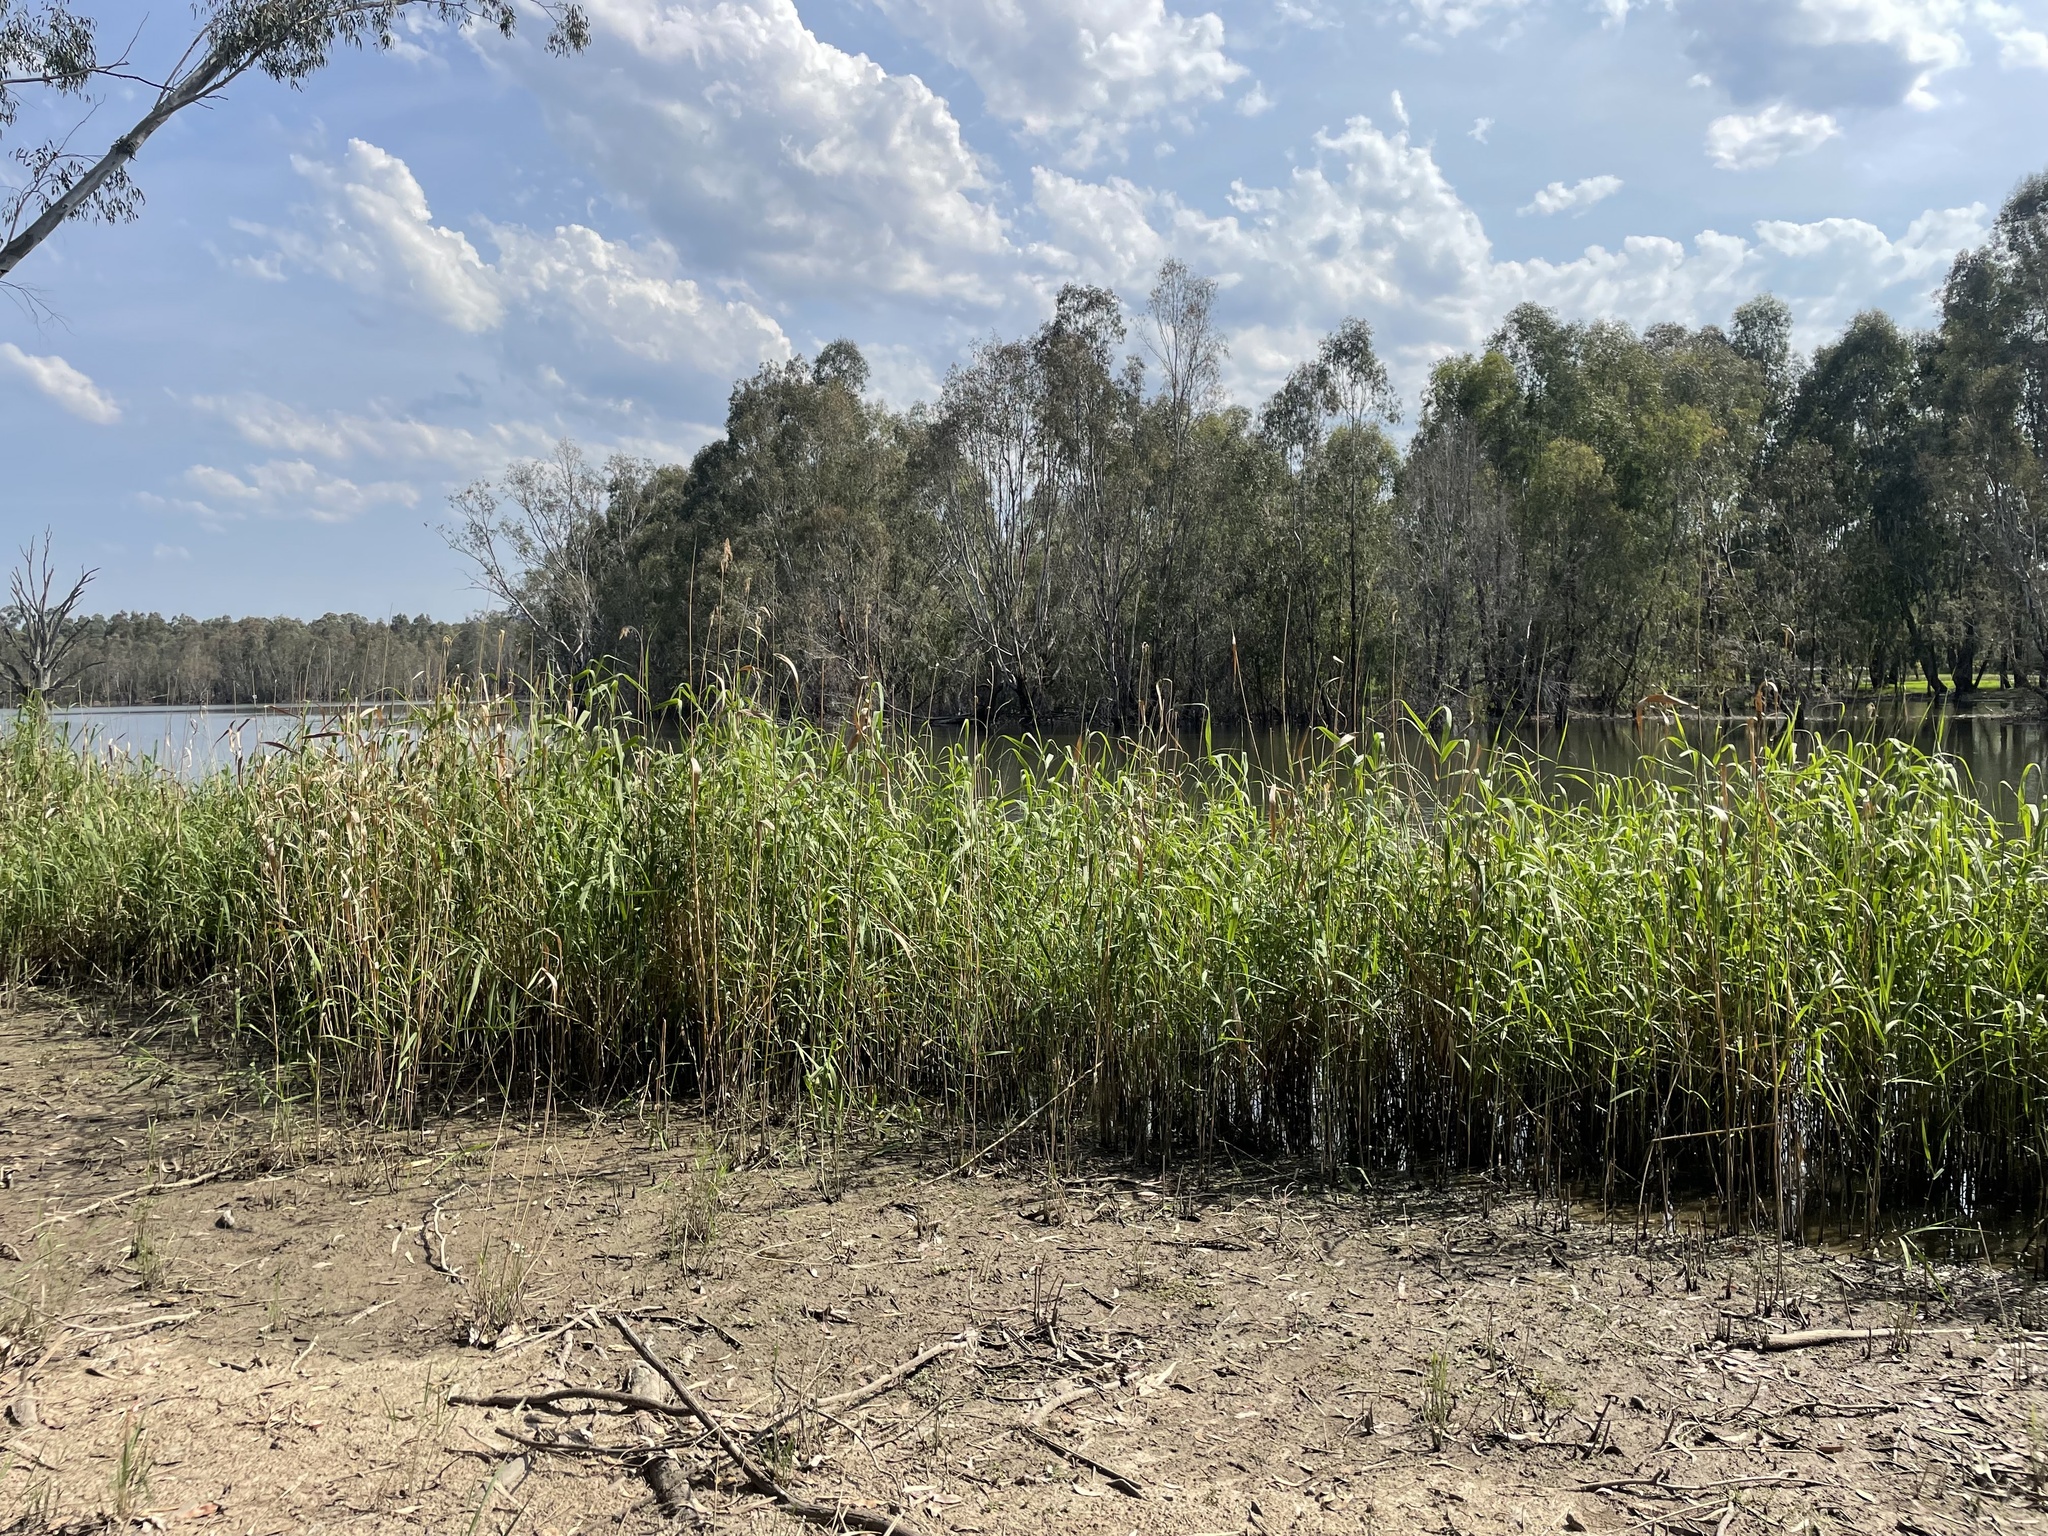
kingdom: Plantae
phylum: Tracheophyta
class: Liliopsida
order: Poales
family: Poaceae
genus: Phragmites
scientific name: Phragmites australis
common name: Common reed
